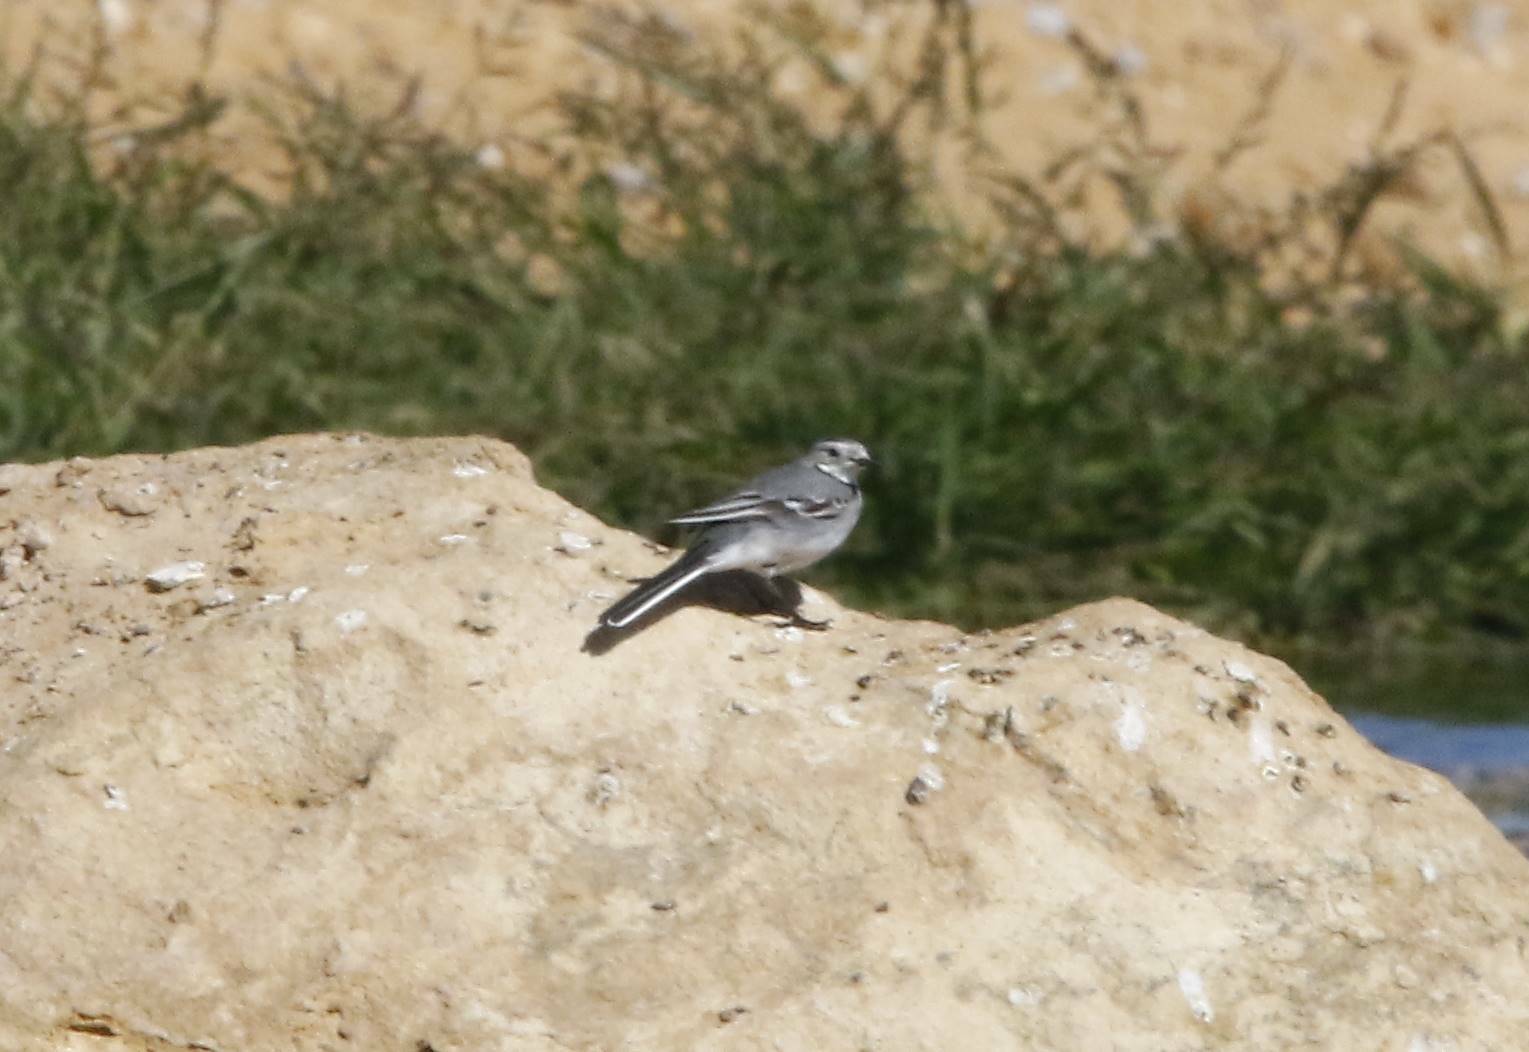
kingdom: Animalia
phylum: Chordata
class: Aves
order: Passeriformes
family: Motacillidae
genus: Motacilla
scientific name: Motacilla alba
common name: White wagtail
